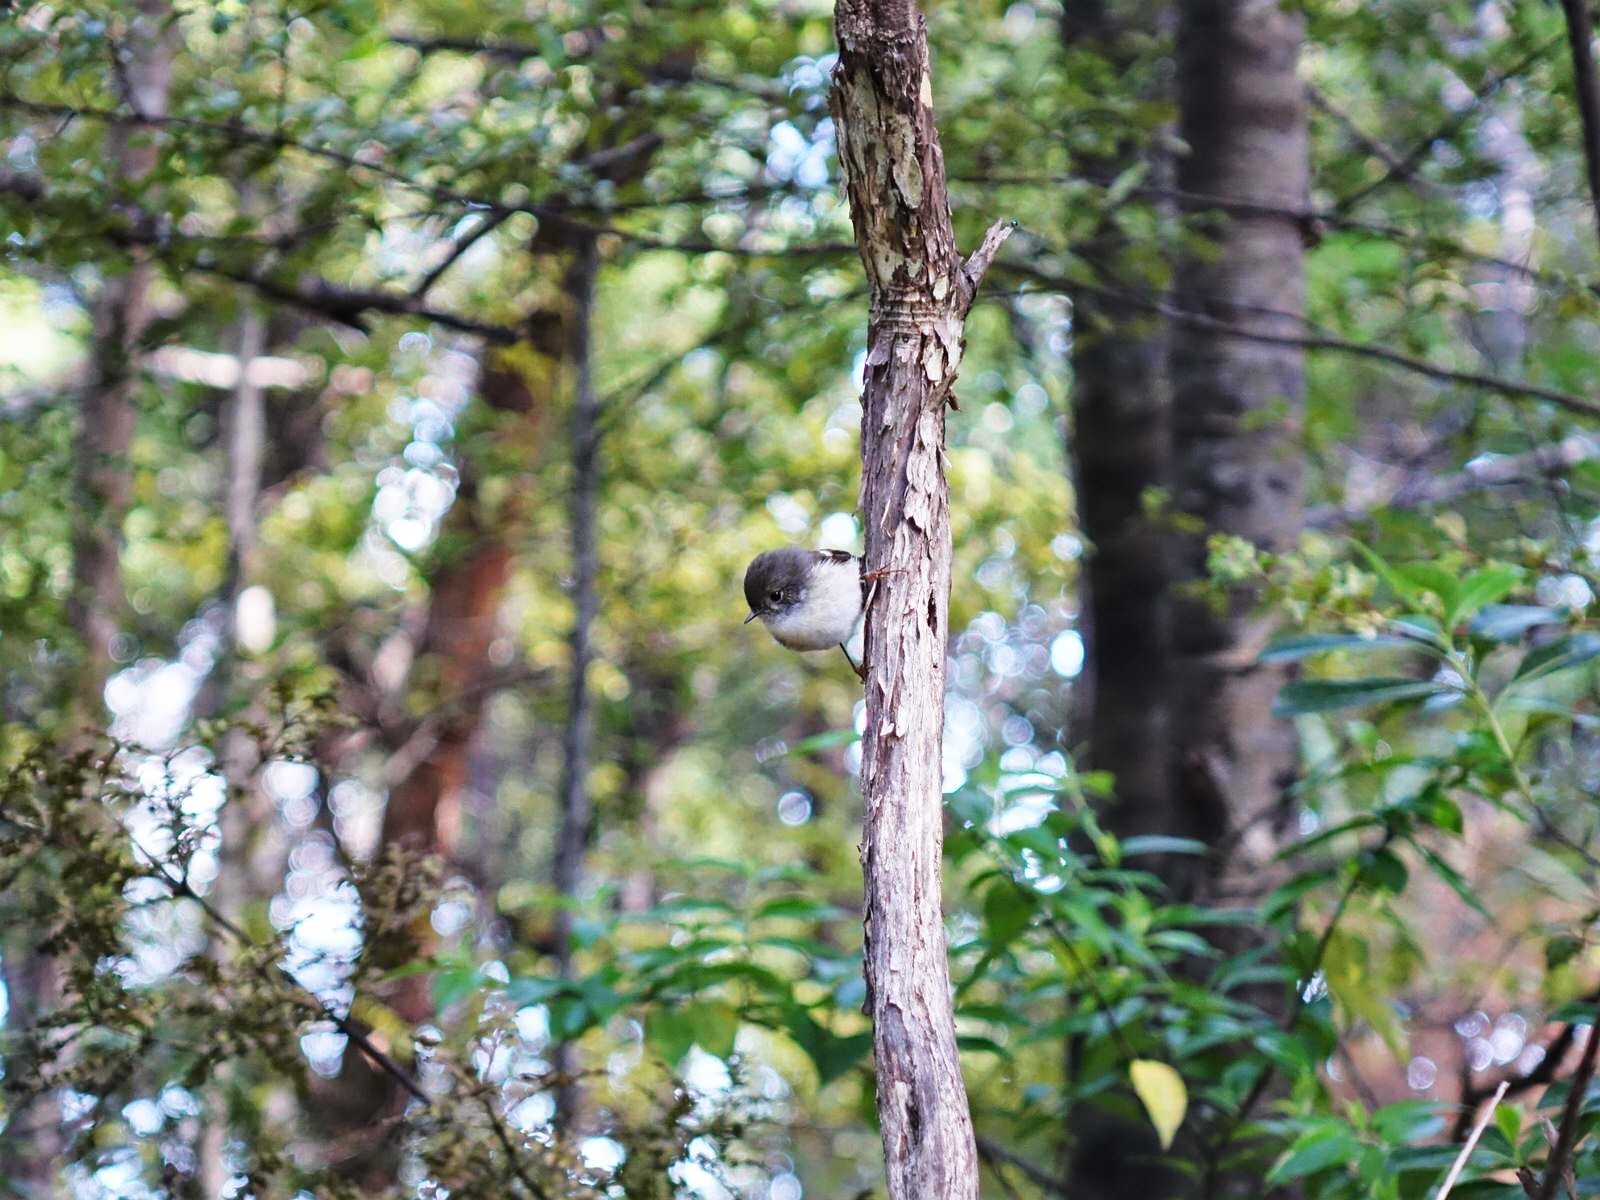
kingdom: Animalia
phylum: Chordata
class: Aves
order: Passeriformes
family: Petroicidae
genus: Petroica
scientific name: Petroica macrocephala
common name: Tomtit
